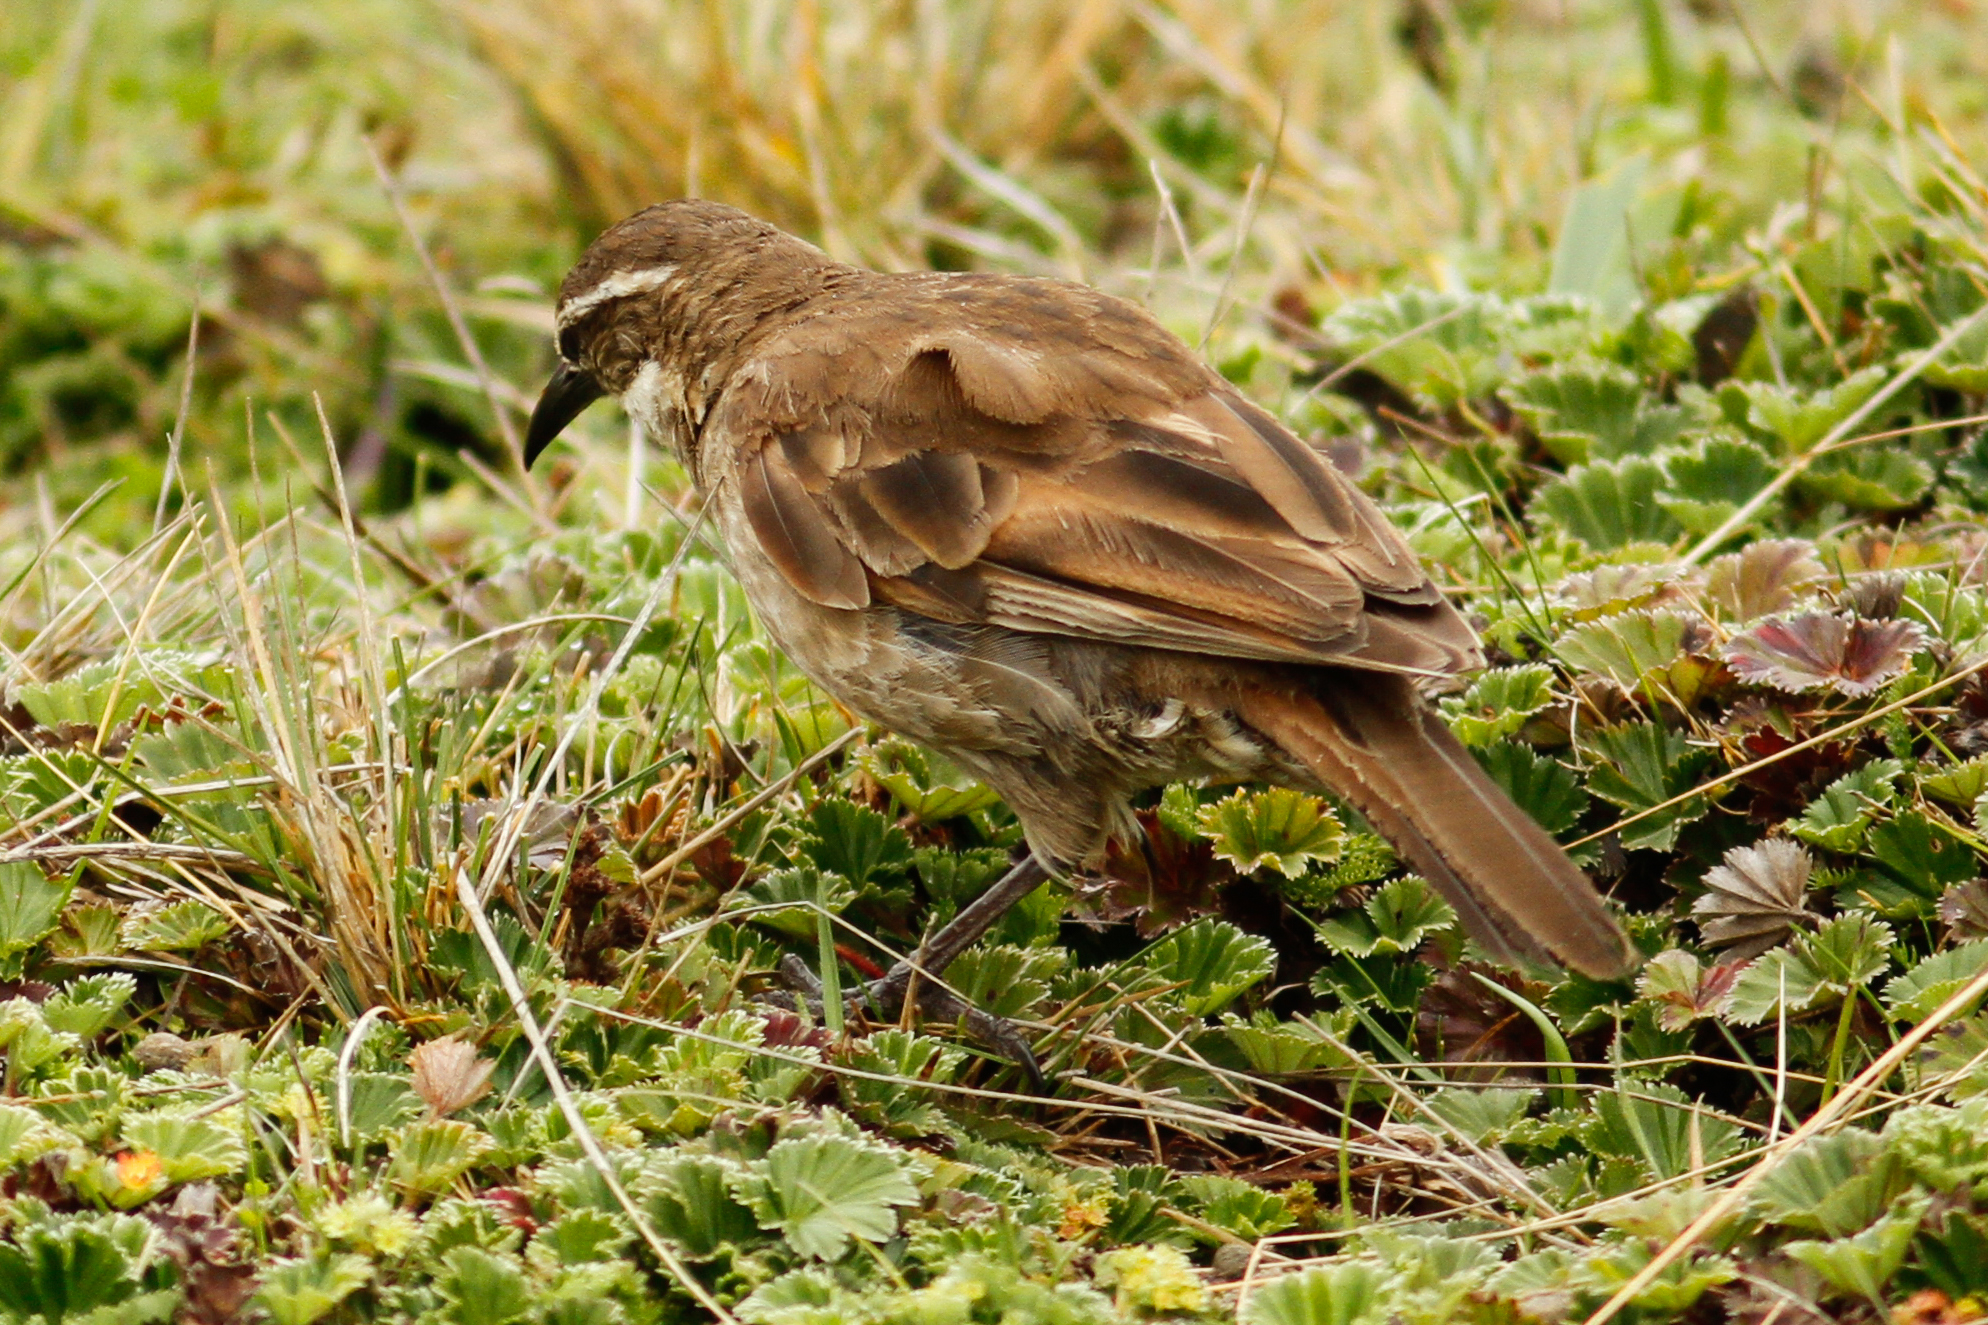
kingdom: Animalia
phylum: Chordata
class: Aves
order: Passeriformes
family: Furnariidae
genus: Cinclodes
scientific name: Cinclodes excelsior
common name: Stout-billed cinclodes
